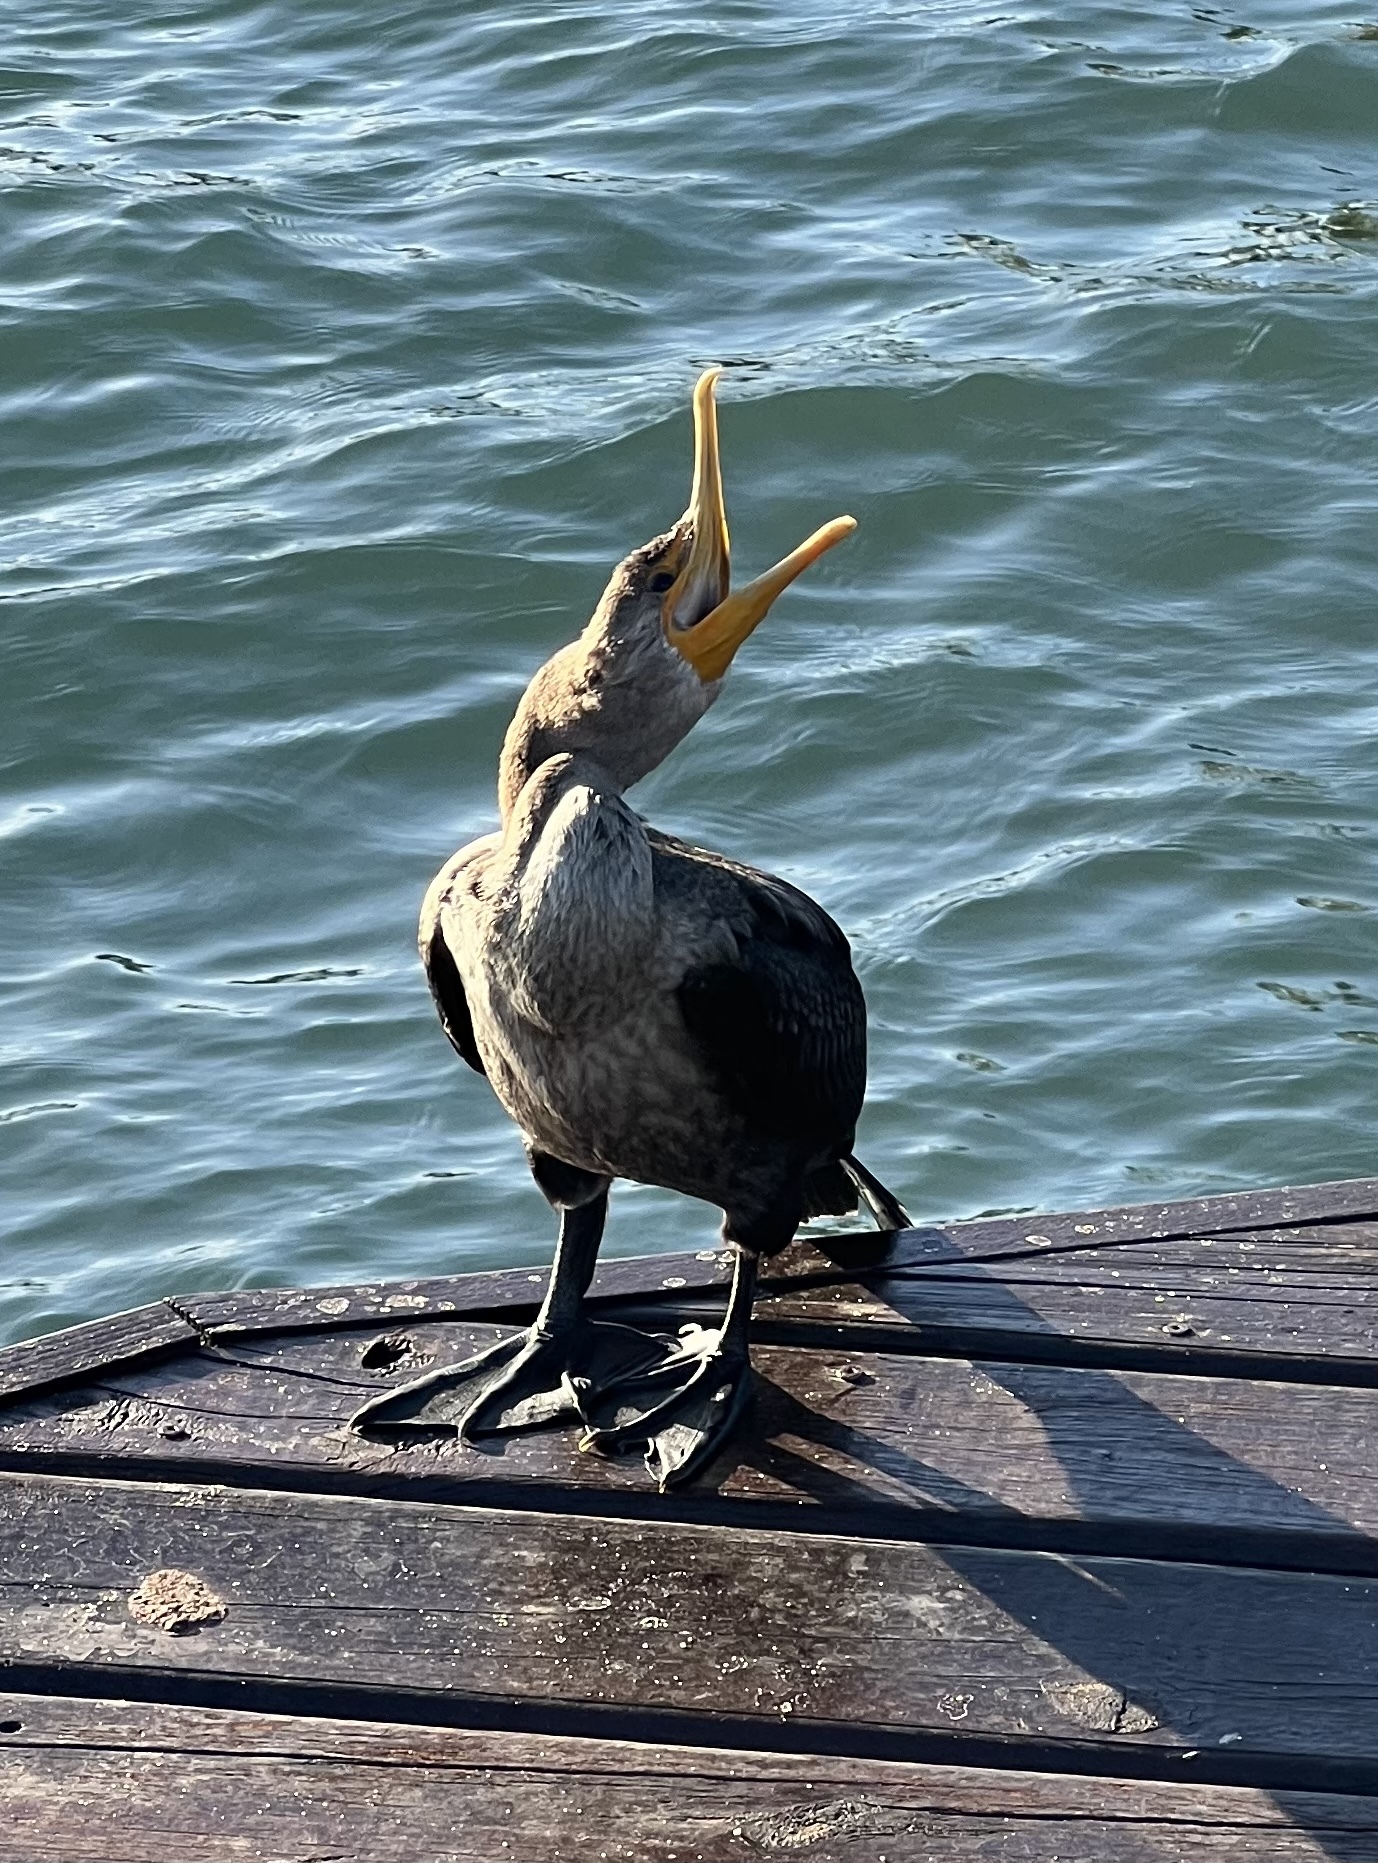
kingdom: Animalia
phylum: Chordata
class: Aves
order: Suliformes
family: Phalacrocoracidae
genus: Phalacrocorax
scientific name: Phalacrocorax auritus
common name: Double-crested cormorant
